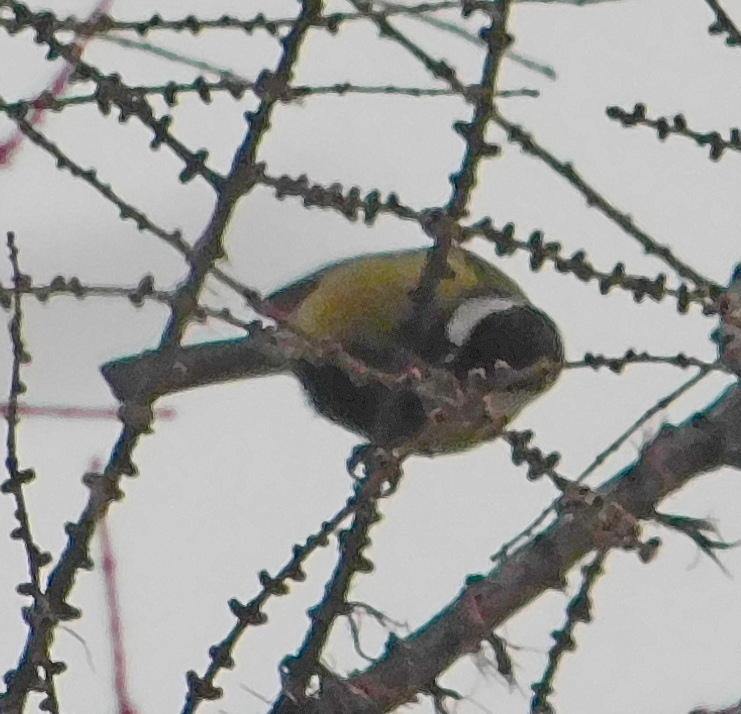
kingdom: Animalia
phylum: Chordata
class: Aves
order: Passeriformes
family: Paridae
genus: Parus
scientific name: Parus major
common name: Great tit
